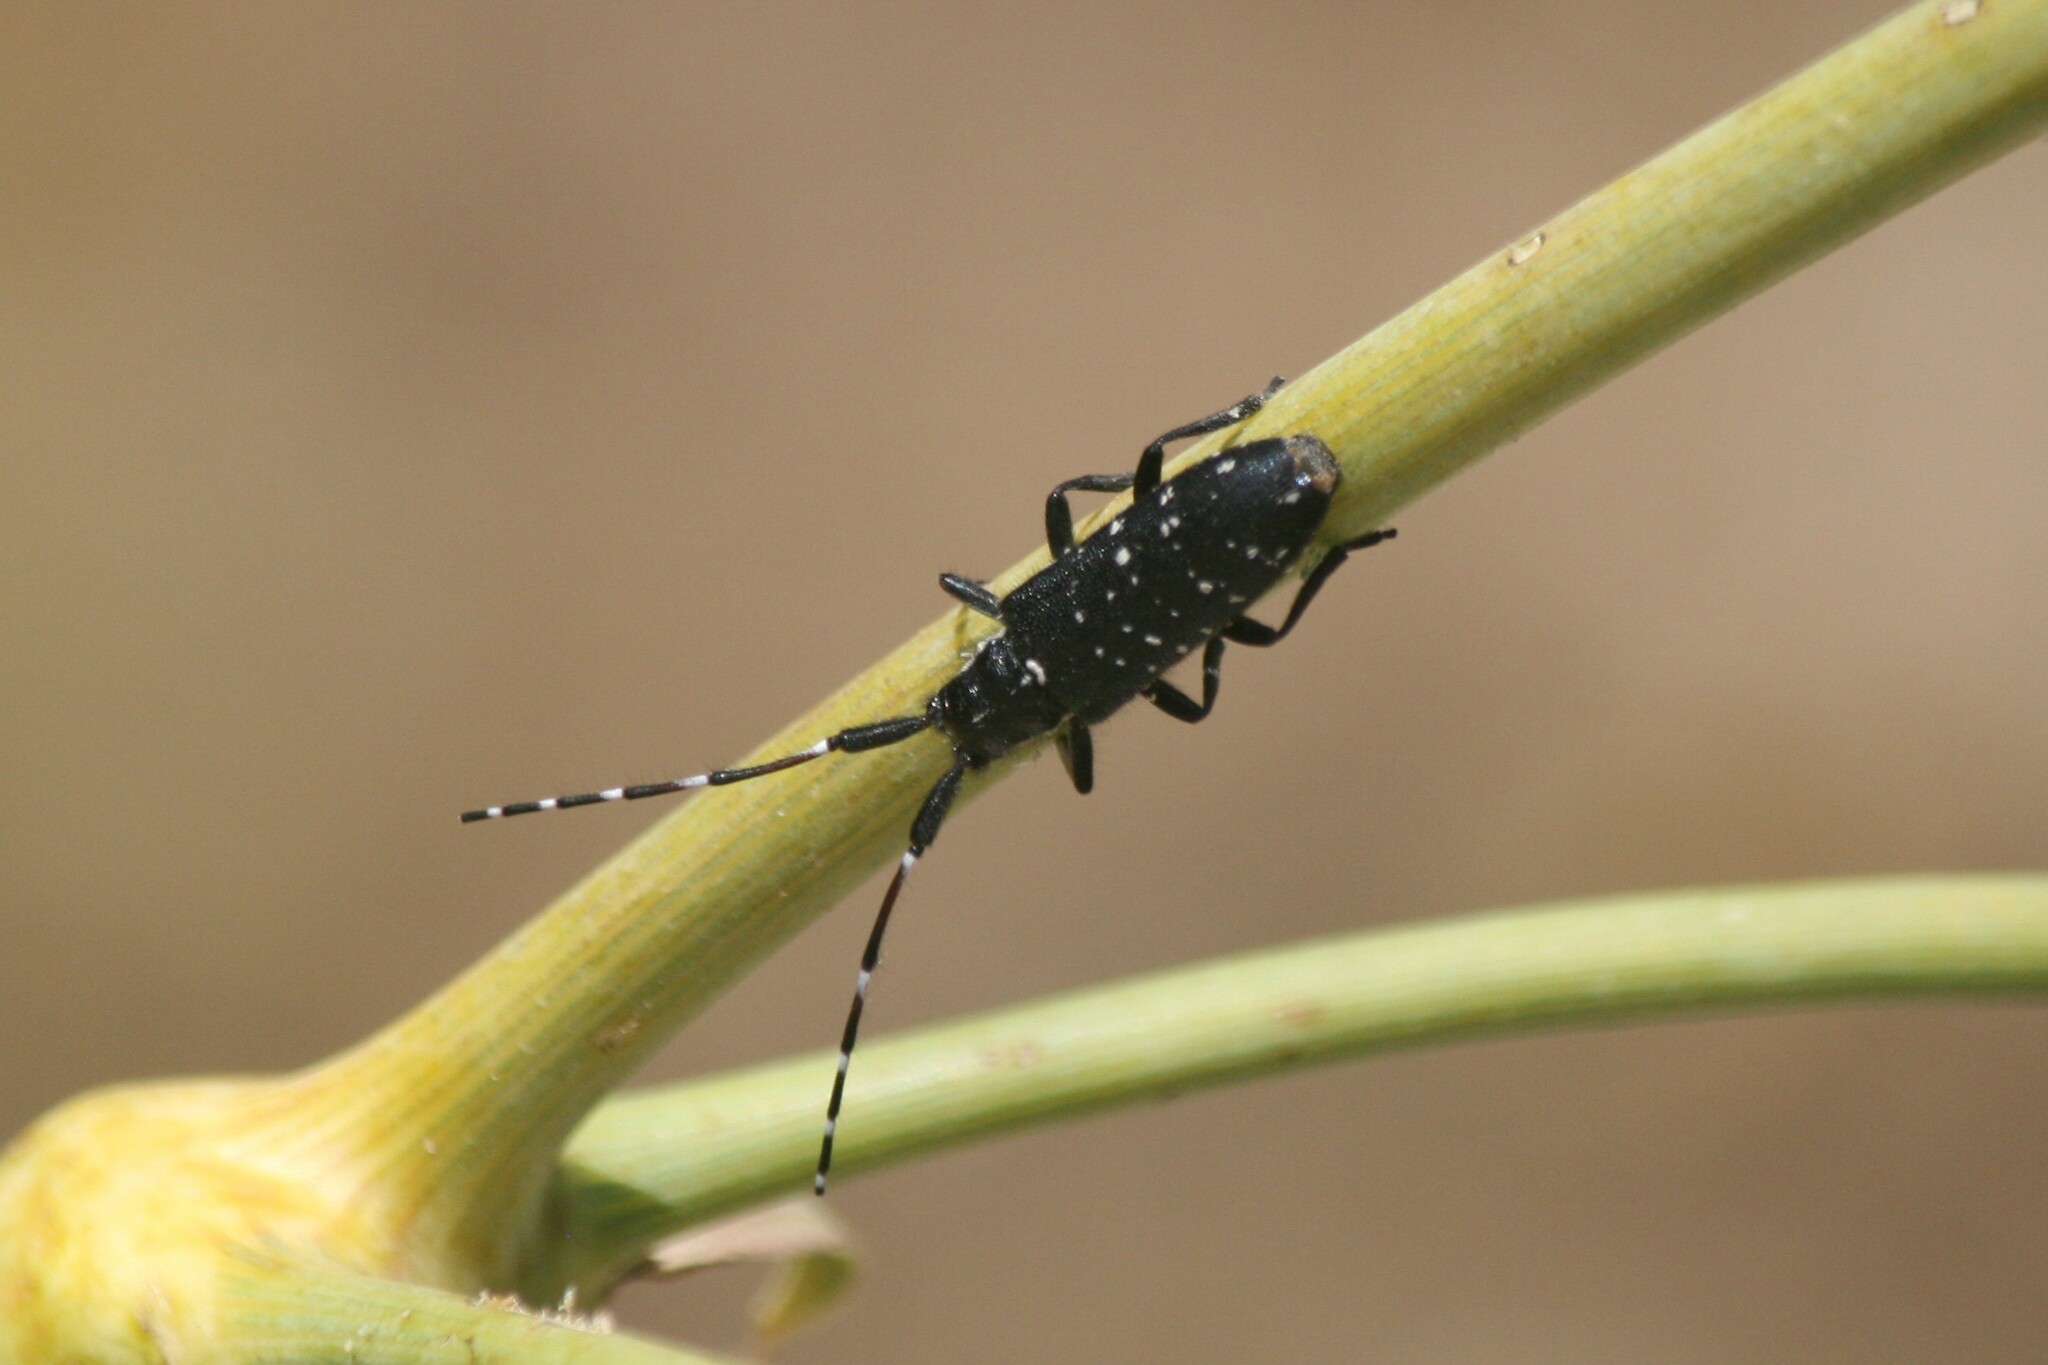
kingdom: Animalia
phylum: Arthropoda
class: Insecta
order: Coleoptera
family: Cerambycidae
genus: Agapanthia
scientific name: Agapanthia irrorata
